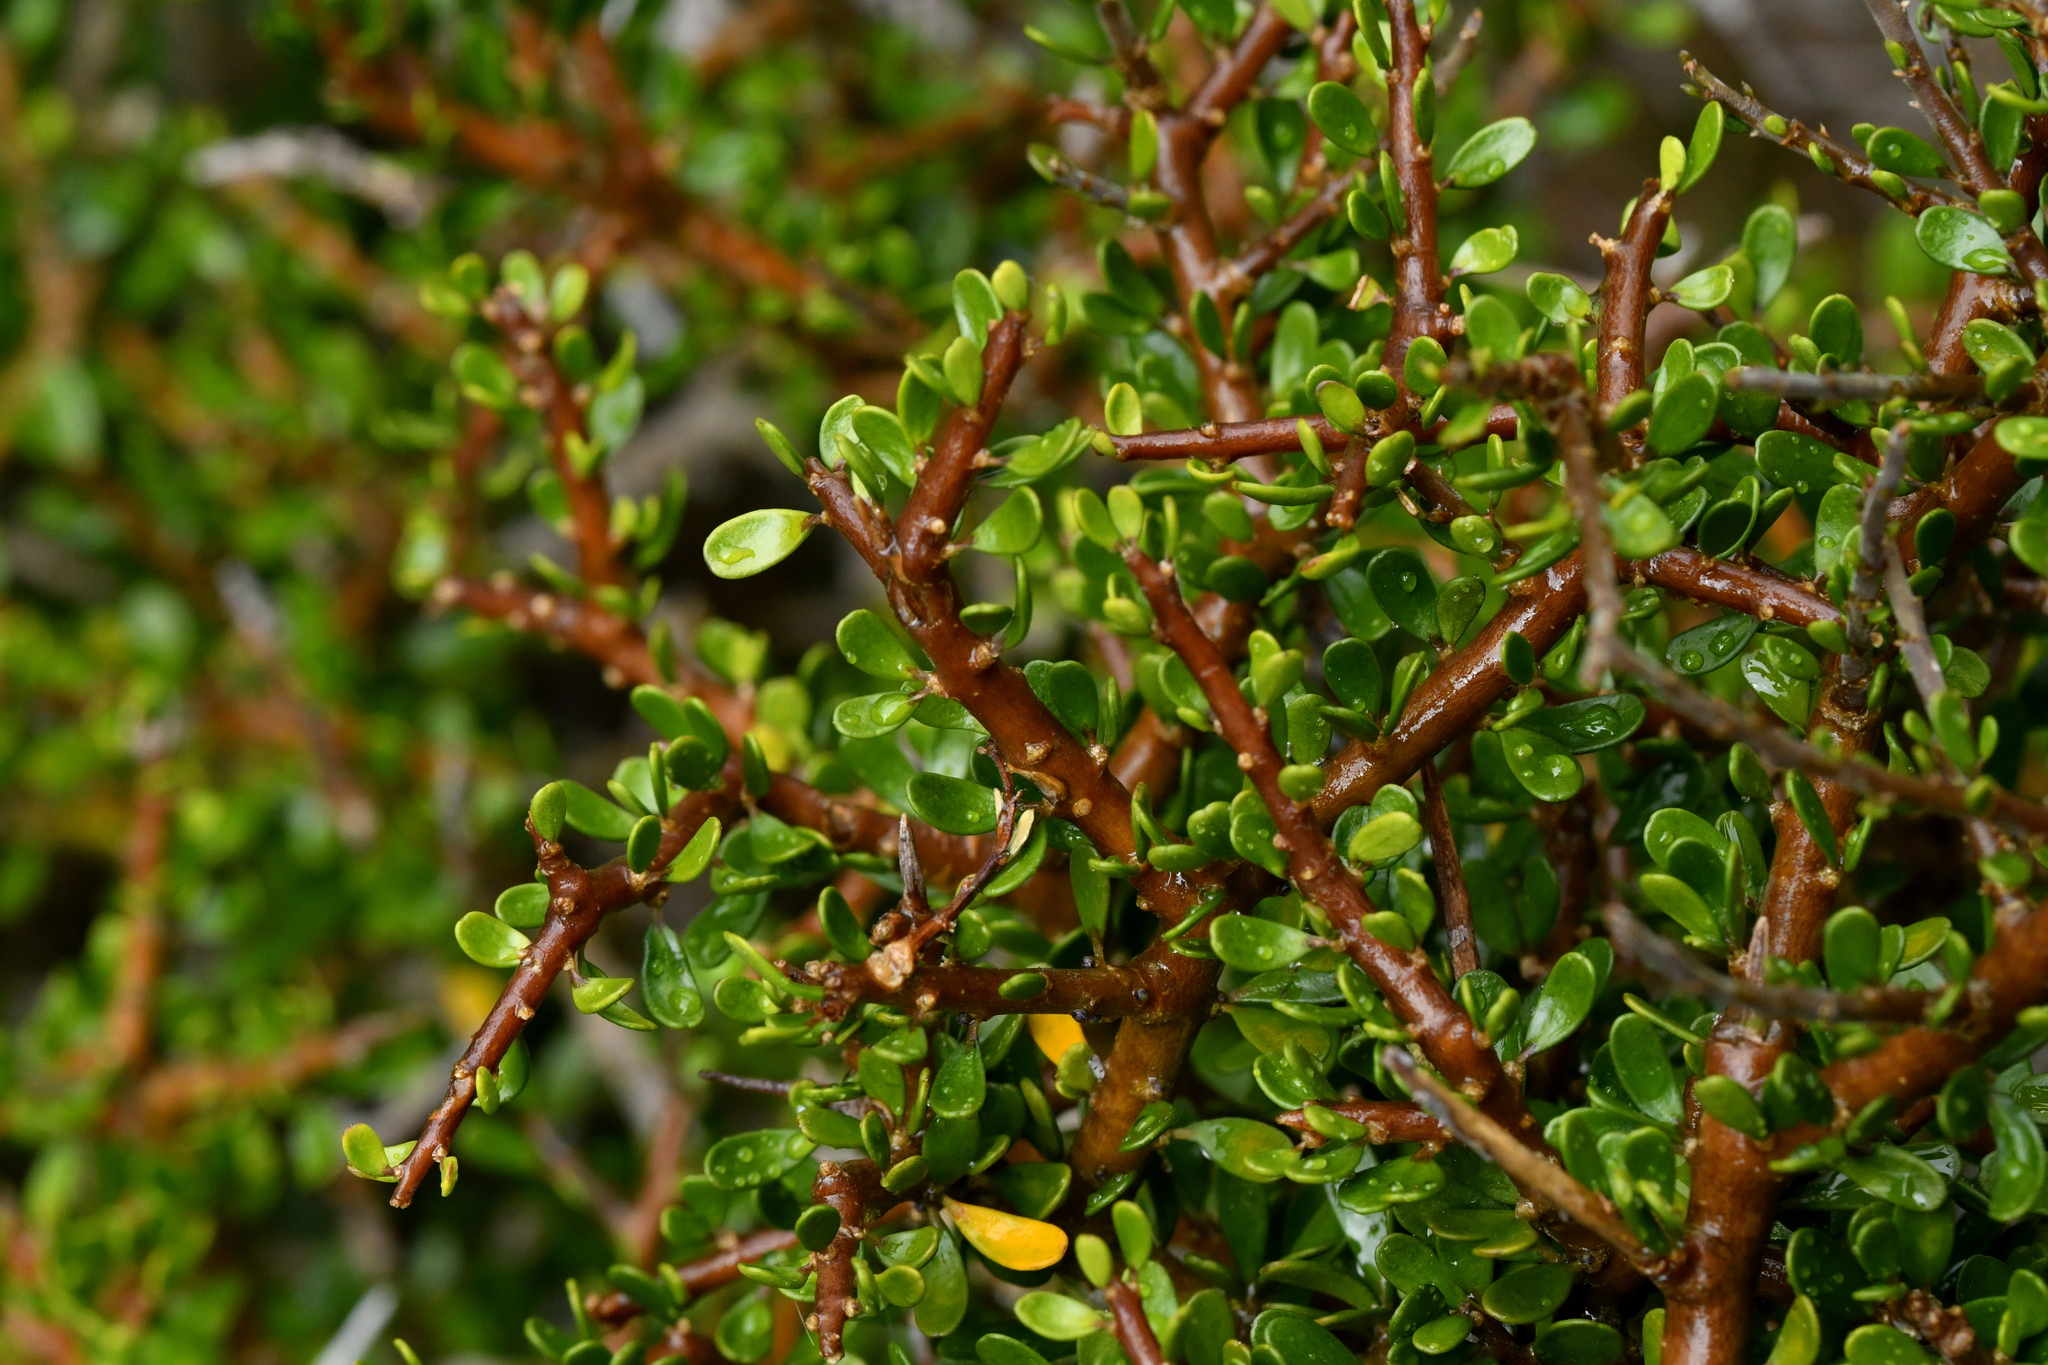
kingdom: Plantae
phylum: Tracheophyta
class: Magnoliopsida
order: Malpighiales
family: Violaceae
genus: Melicytus
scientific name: Melicytus alpinus
